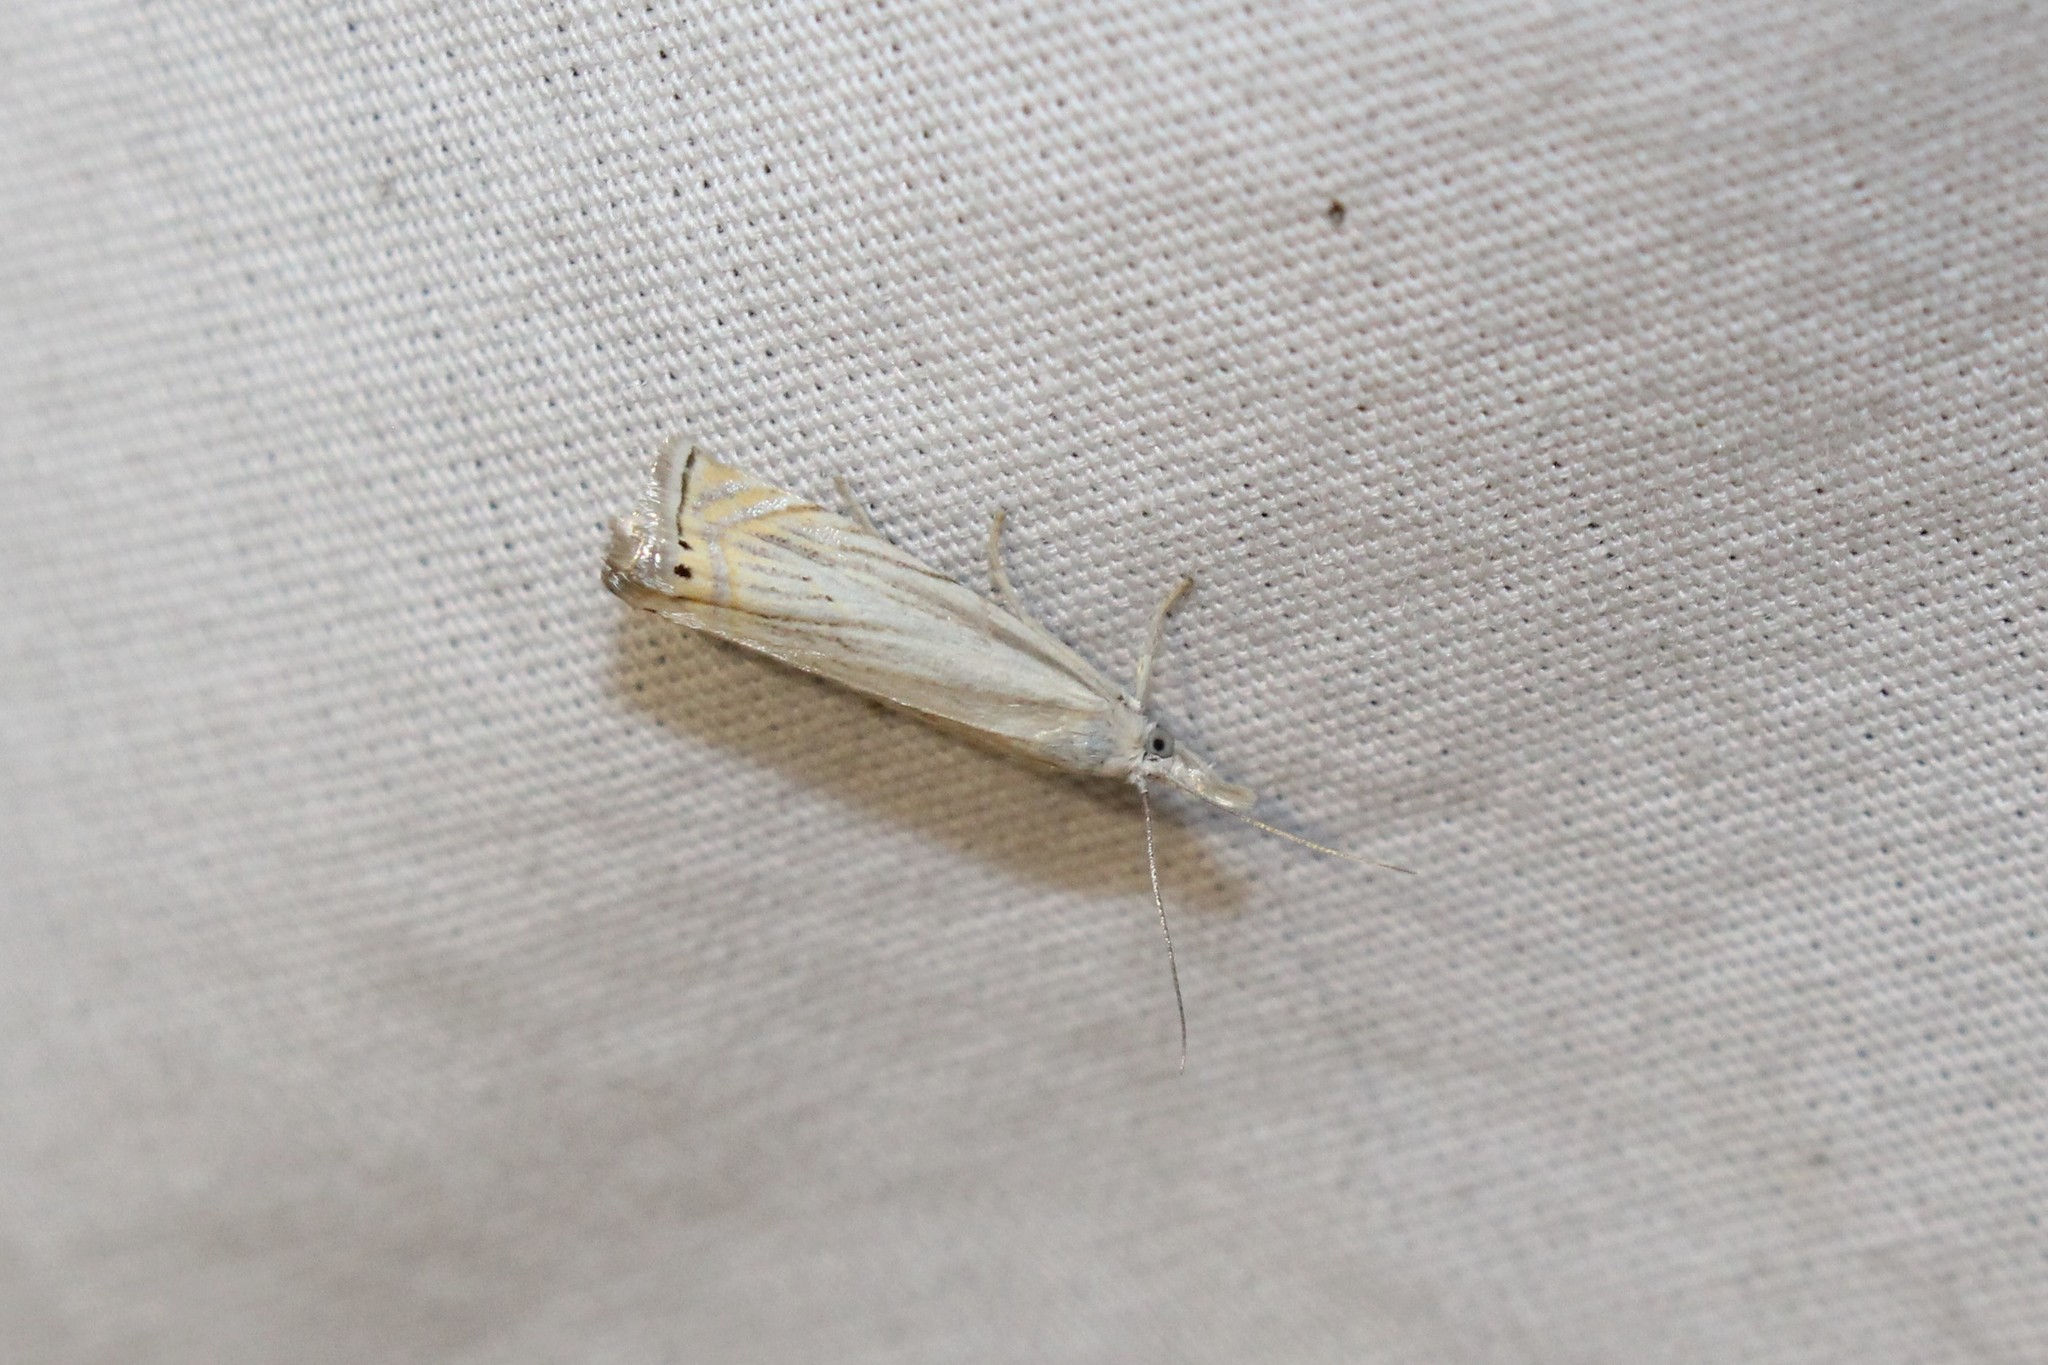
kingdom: Animalia
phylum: Arthropoda
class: Insecta
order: Lepidoptera
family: Crambidae
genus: Chrysoteuchia
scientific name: Chrysoteuchia topiarius
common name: Topiary grass-veneer
